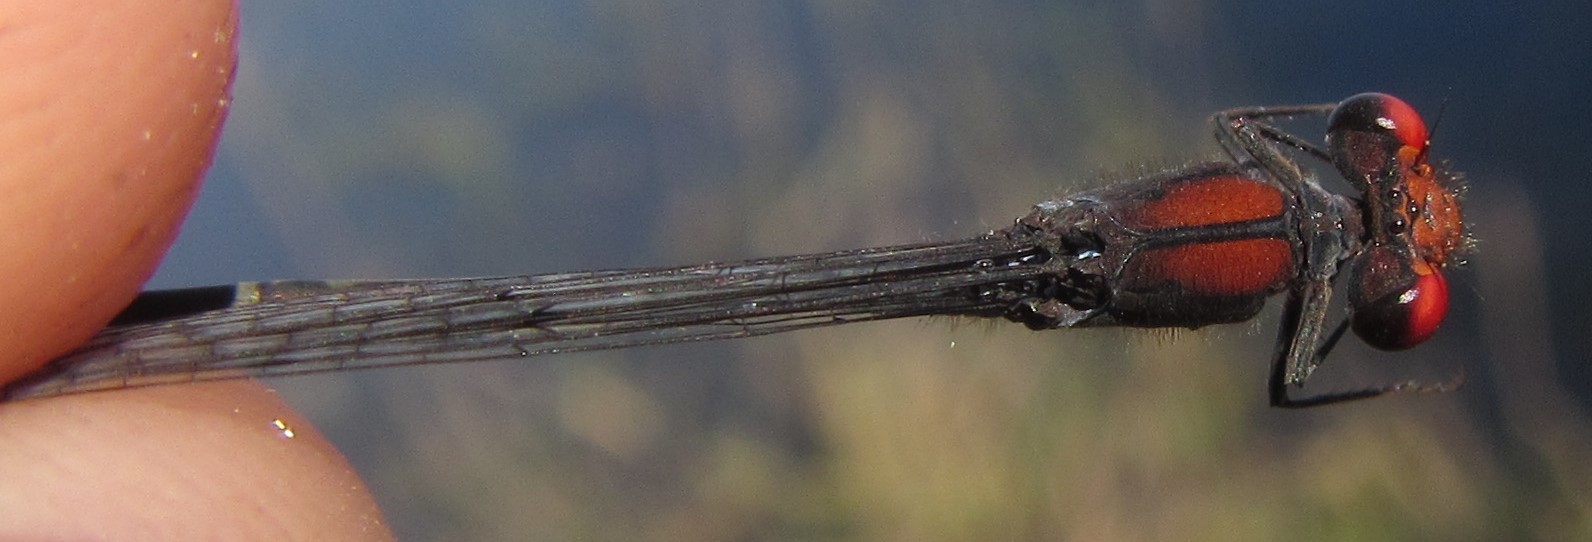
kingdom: Animalia
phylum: Arthropoda
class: Insecta
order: Odonata
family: Coenagrionidae
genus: Pseudagrion
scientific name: Pseudagrion massaicum
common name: Masai sprite
